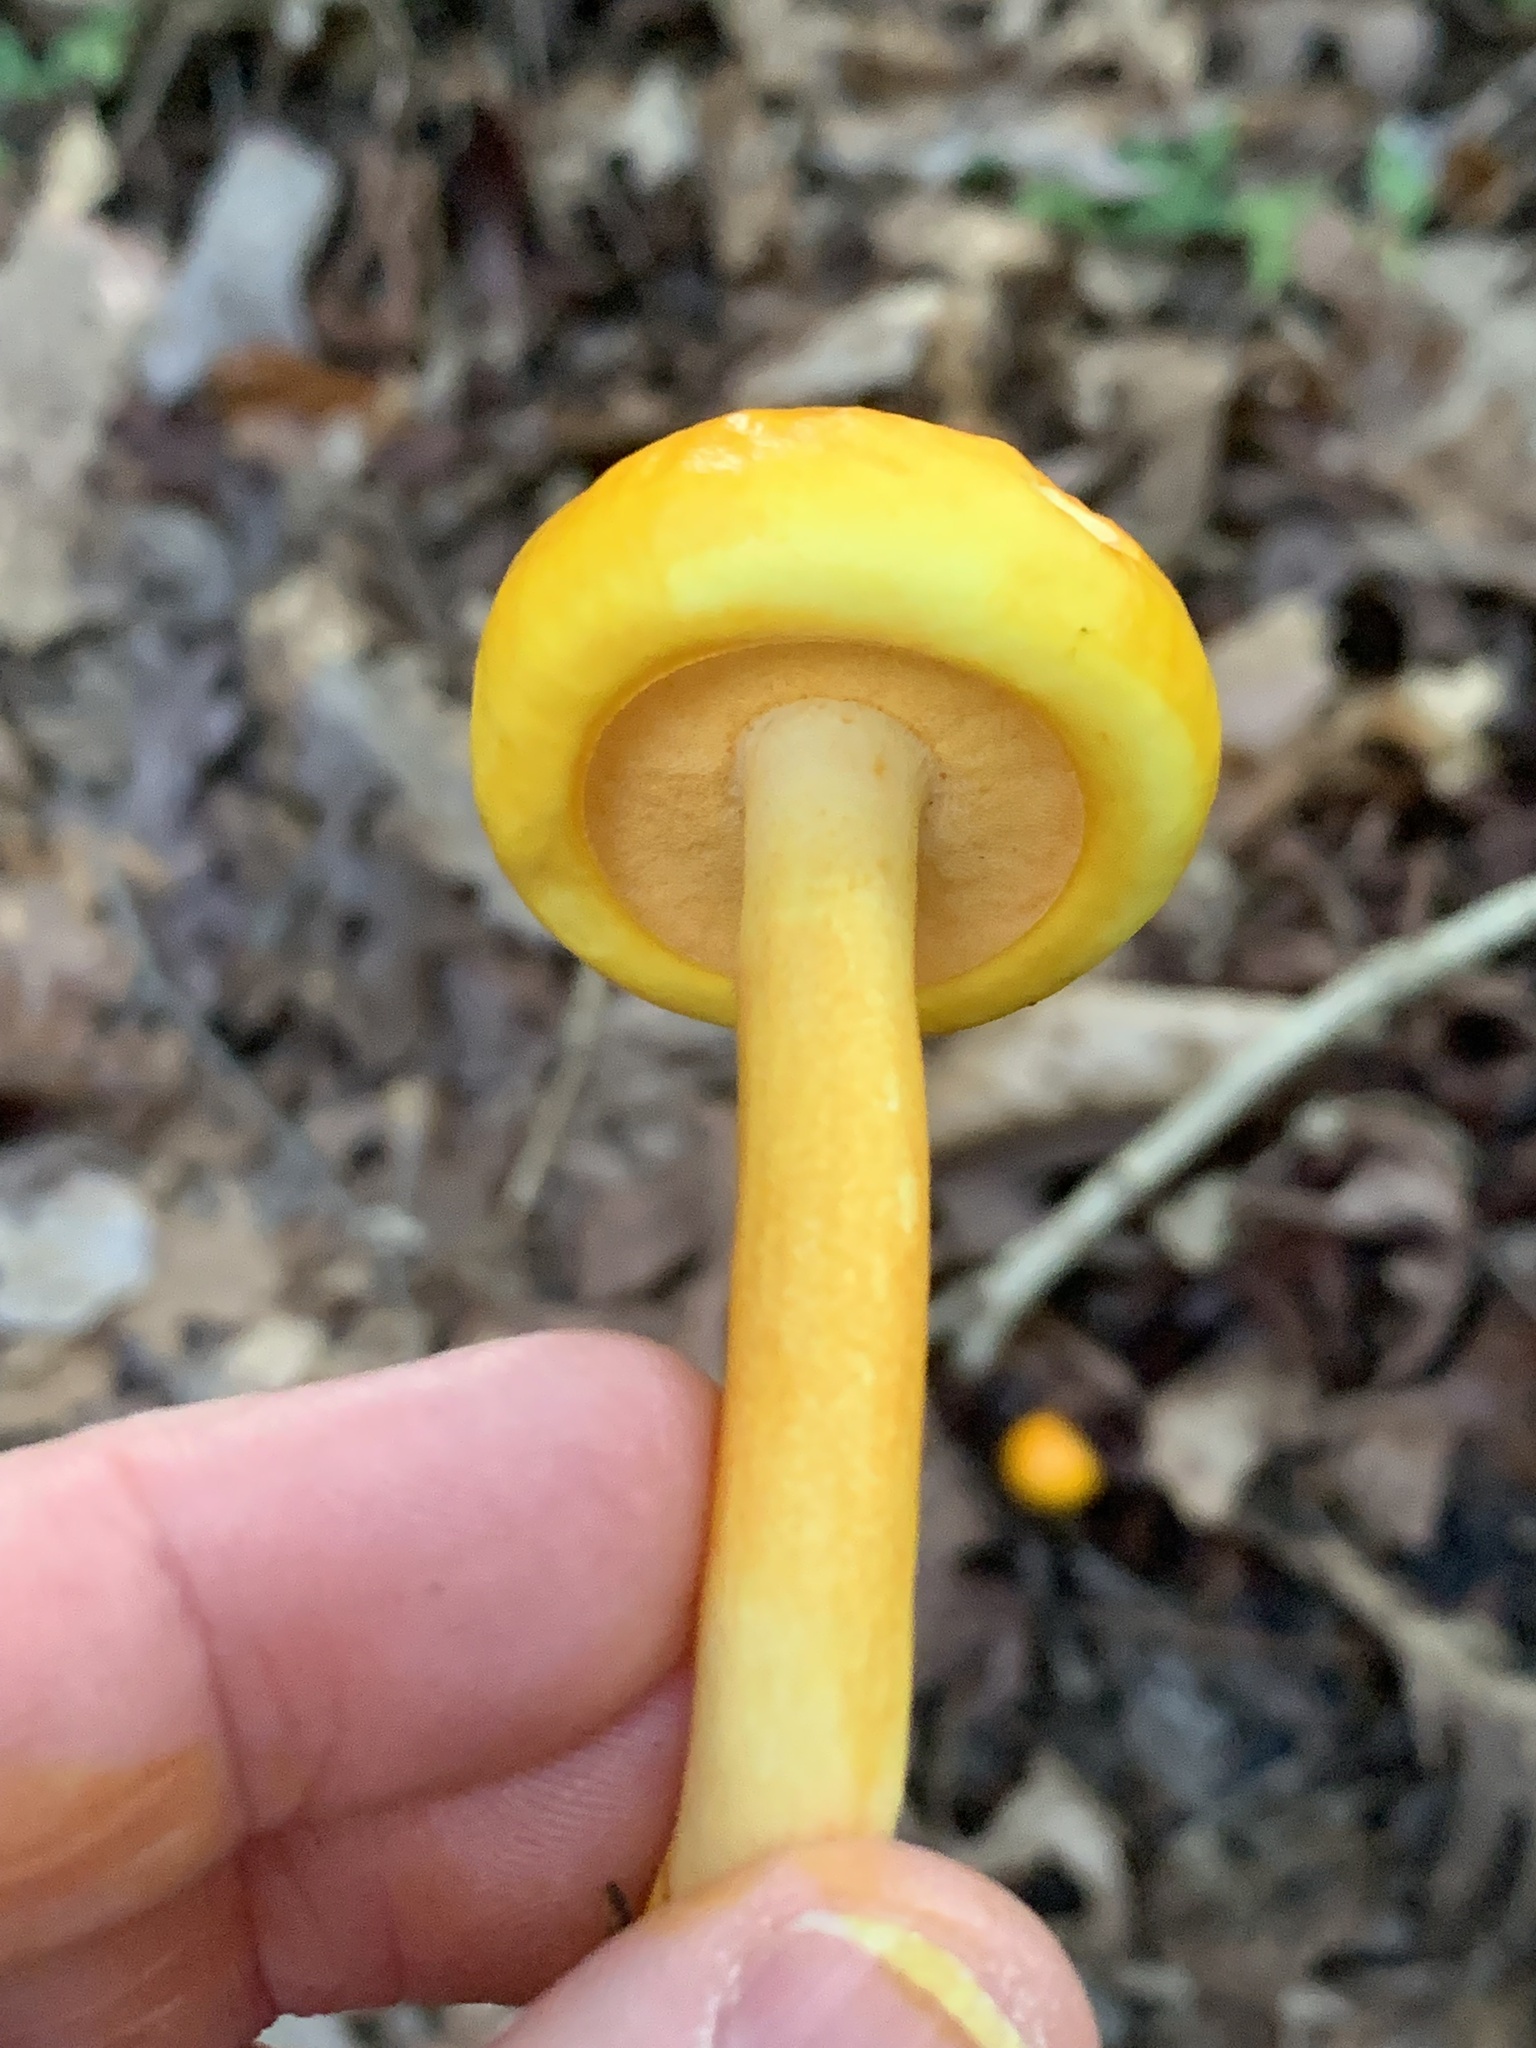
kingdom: Fungi
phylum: Basidiomycota
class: Agaricomycetes
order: Boletales
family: Boletaceae
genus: Pulveroboletus
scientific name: Pulveroboletus curtisii
